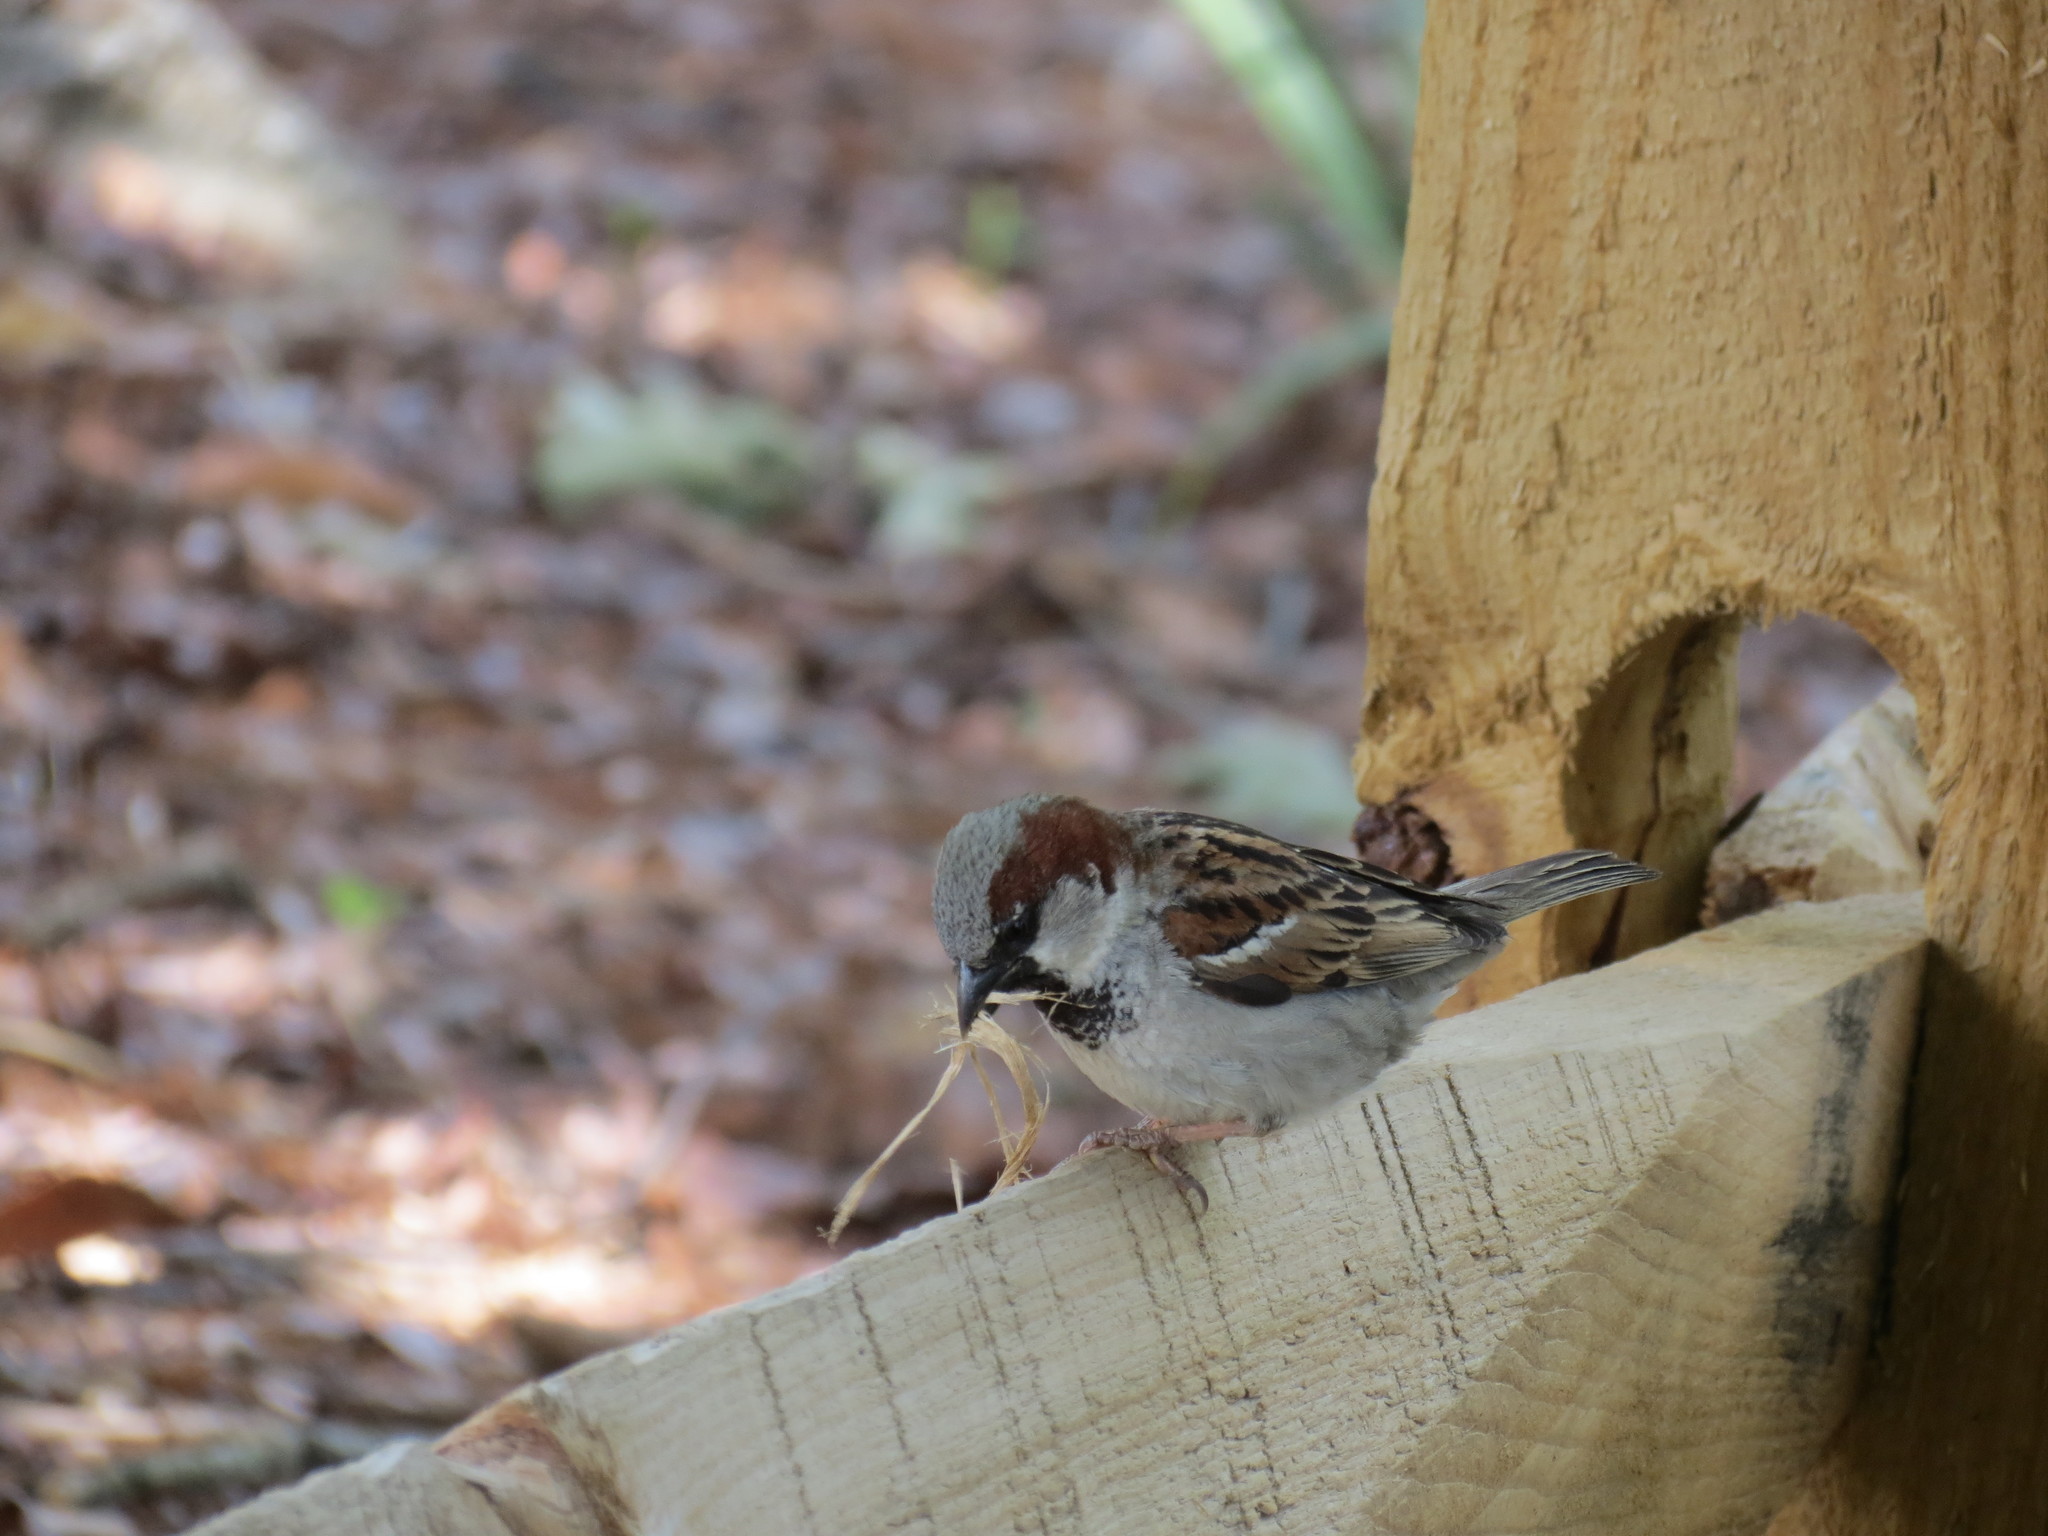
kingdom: Animalia
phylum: Chordata
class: Aves
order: Passeriformes
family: Passeridae
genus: Passer
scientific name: Passer domesticus
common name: House sparrow
